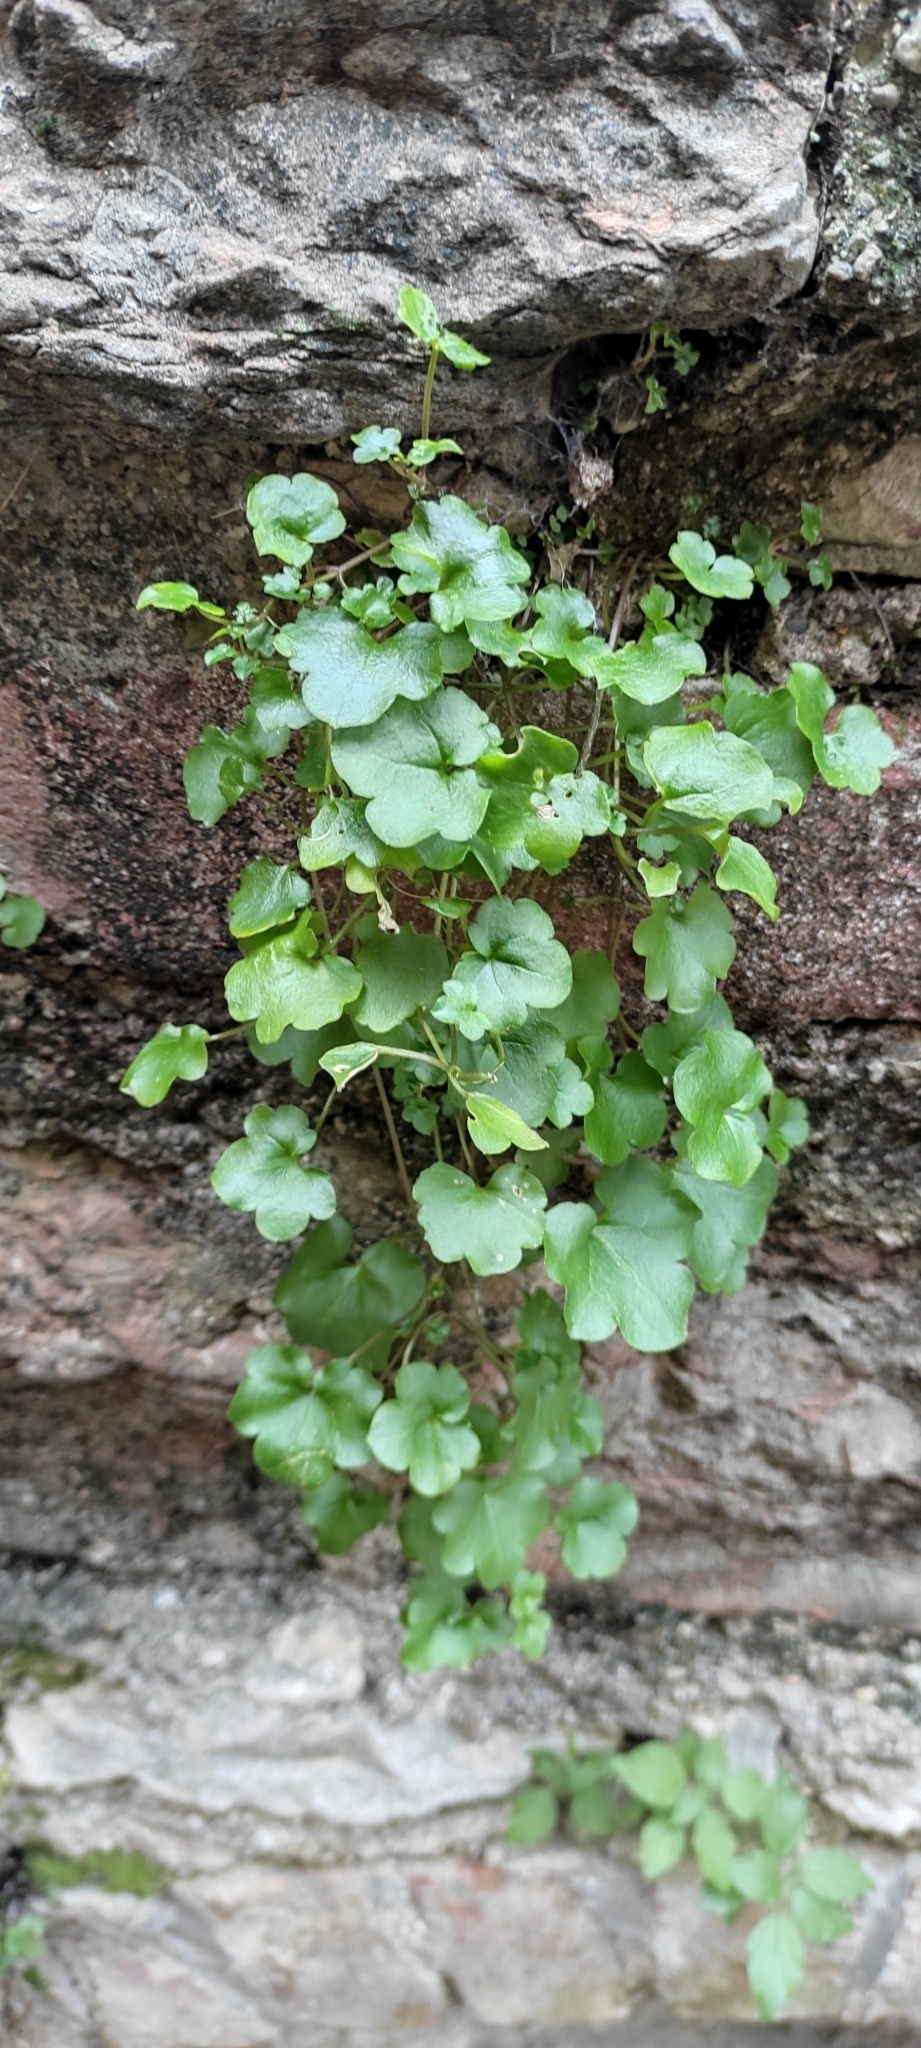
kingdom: Plantae
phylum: Tracheophyta
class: Magnoliopsida
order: Lamiales
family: Plantaginaceae
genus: Cymbalaria
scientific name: Cymbalaria muralis
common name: Ivy-leaved toadflax
